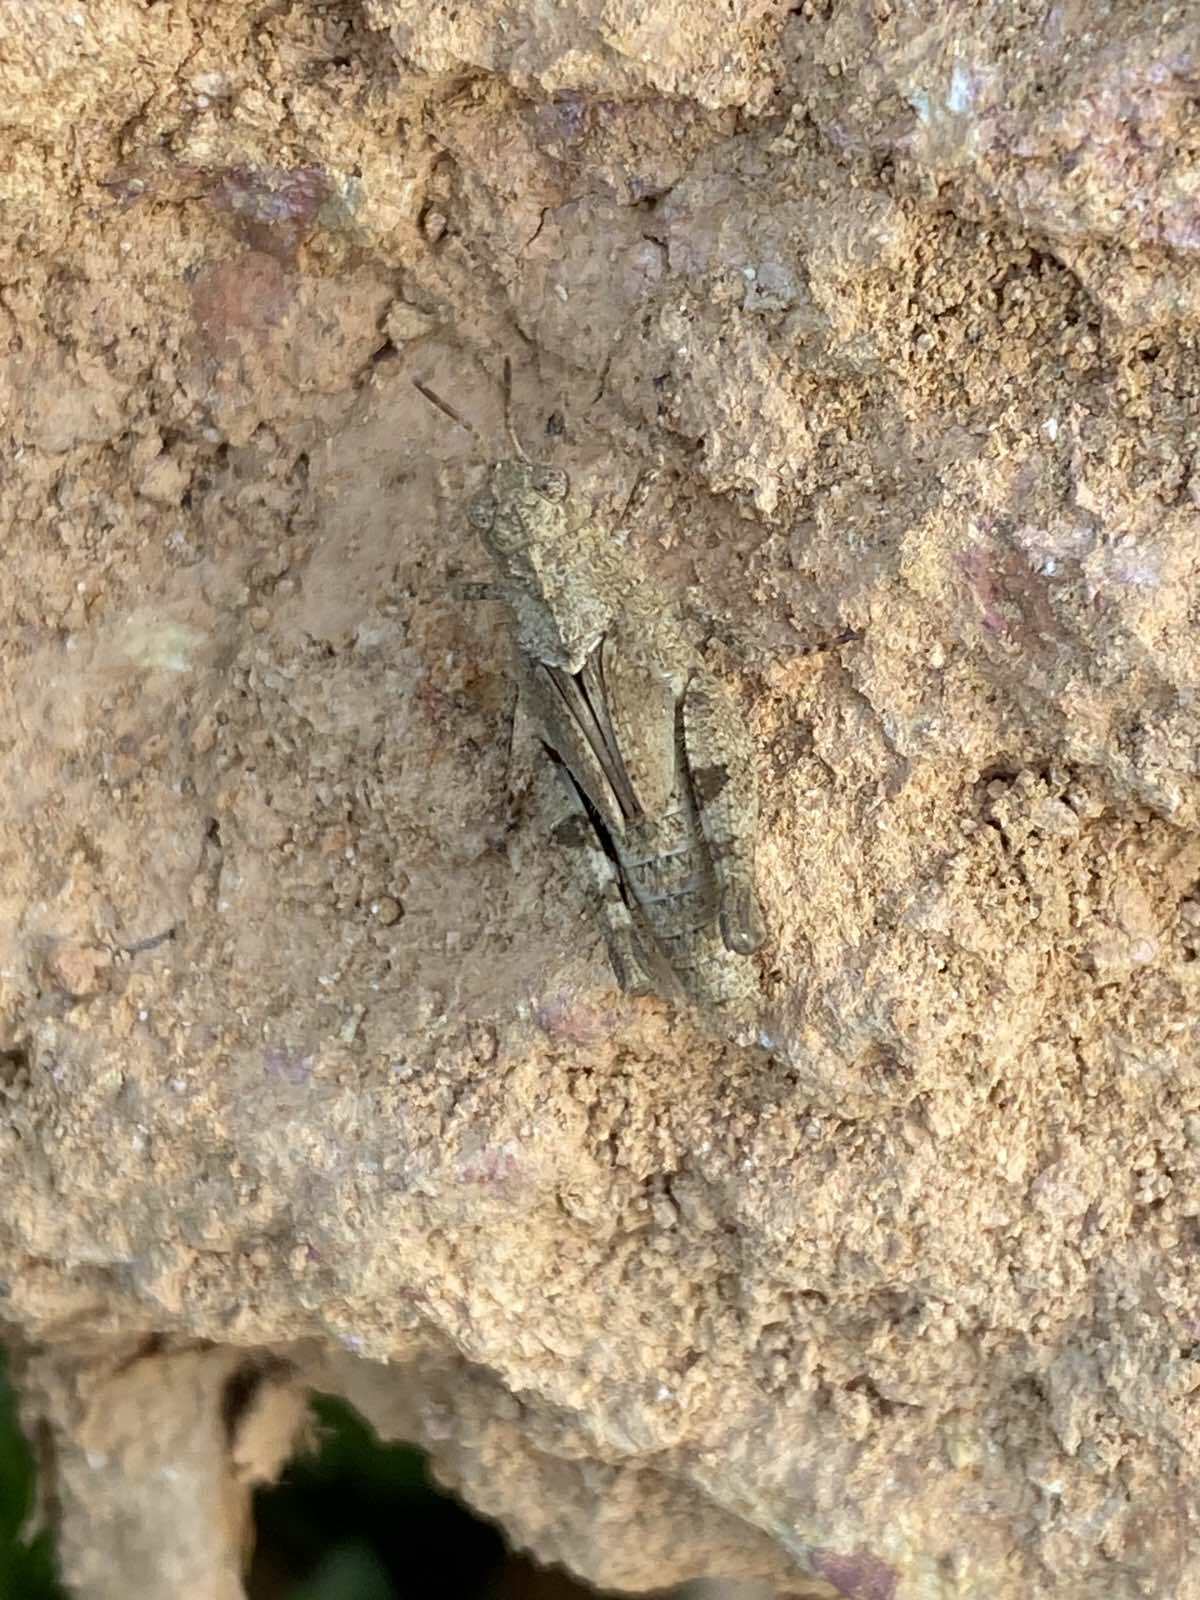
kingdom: Animalia
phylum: Arthropoda
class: Insecta
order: Orthoptera
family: Acrididae
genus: Trilophidia
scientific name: Trilophidia annulata
